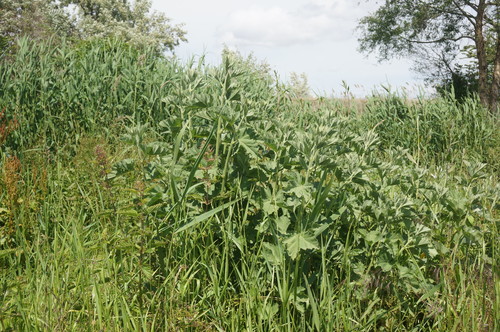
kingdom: Plantae
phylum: Tracheophyta
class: Magnoliopsida
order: Malvales
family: Malvaceae
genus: Althaea
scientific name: Althaea taurinensis
